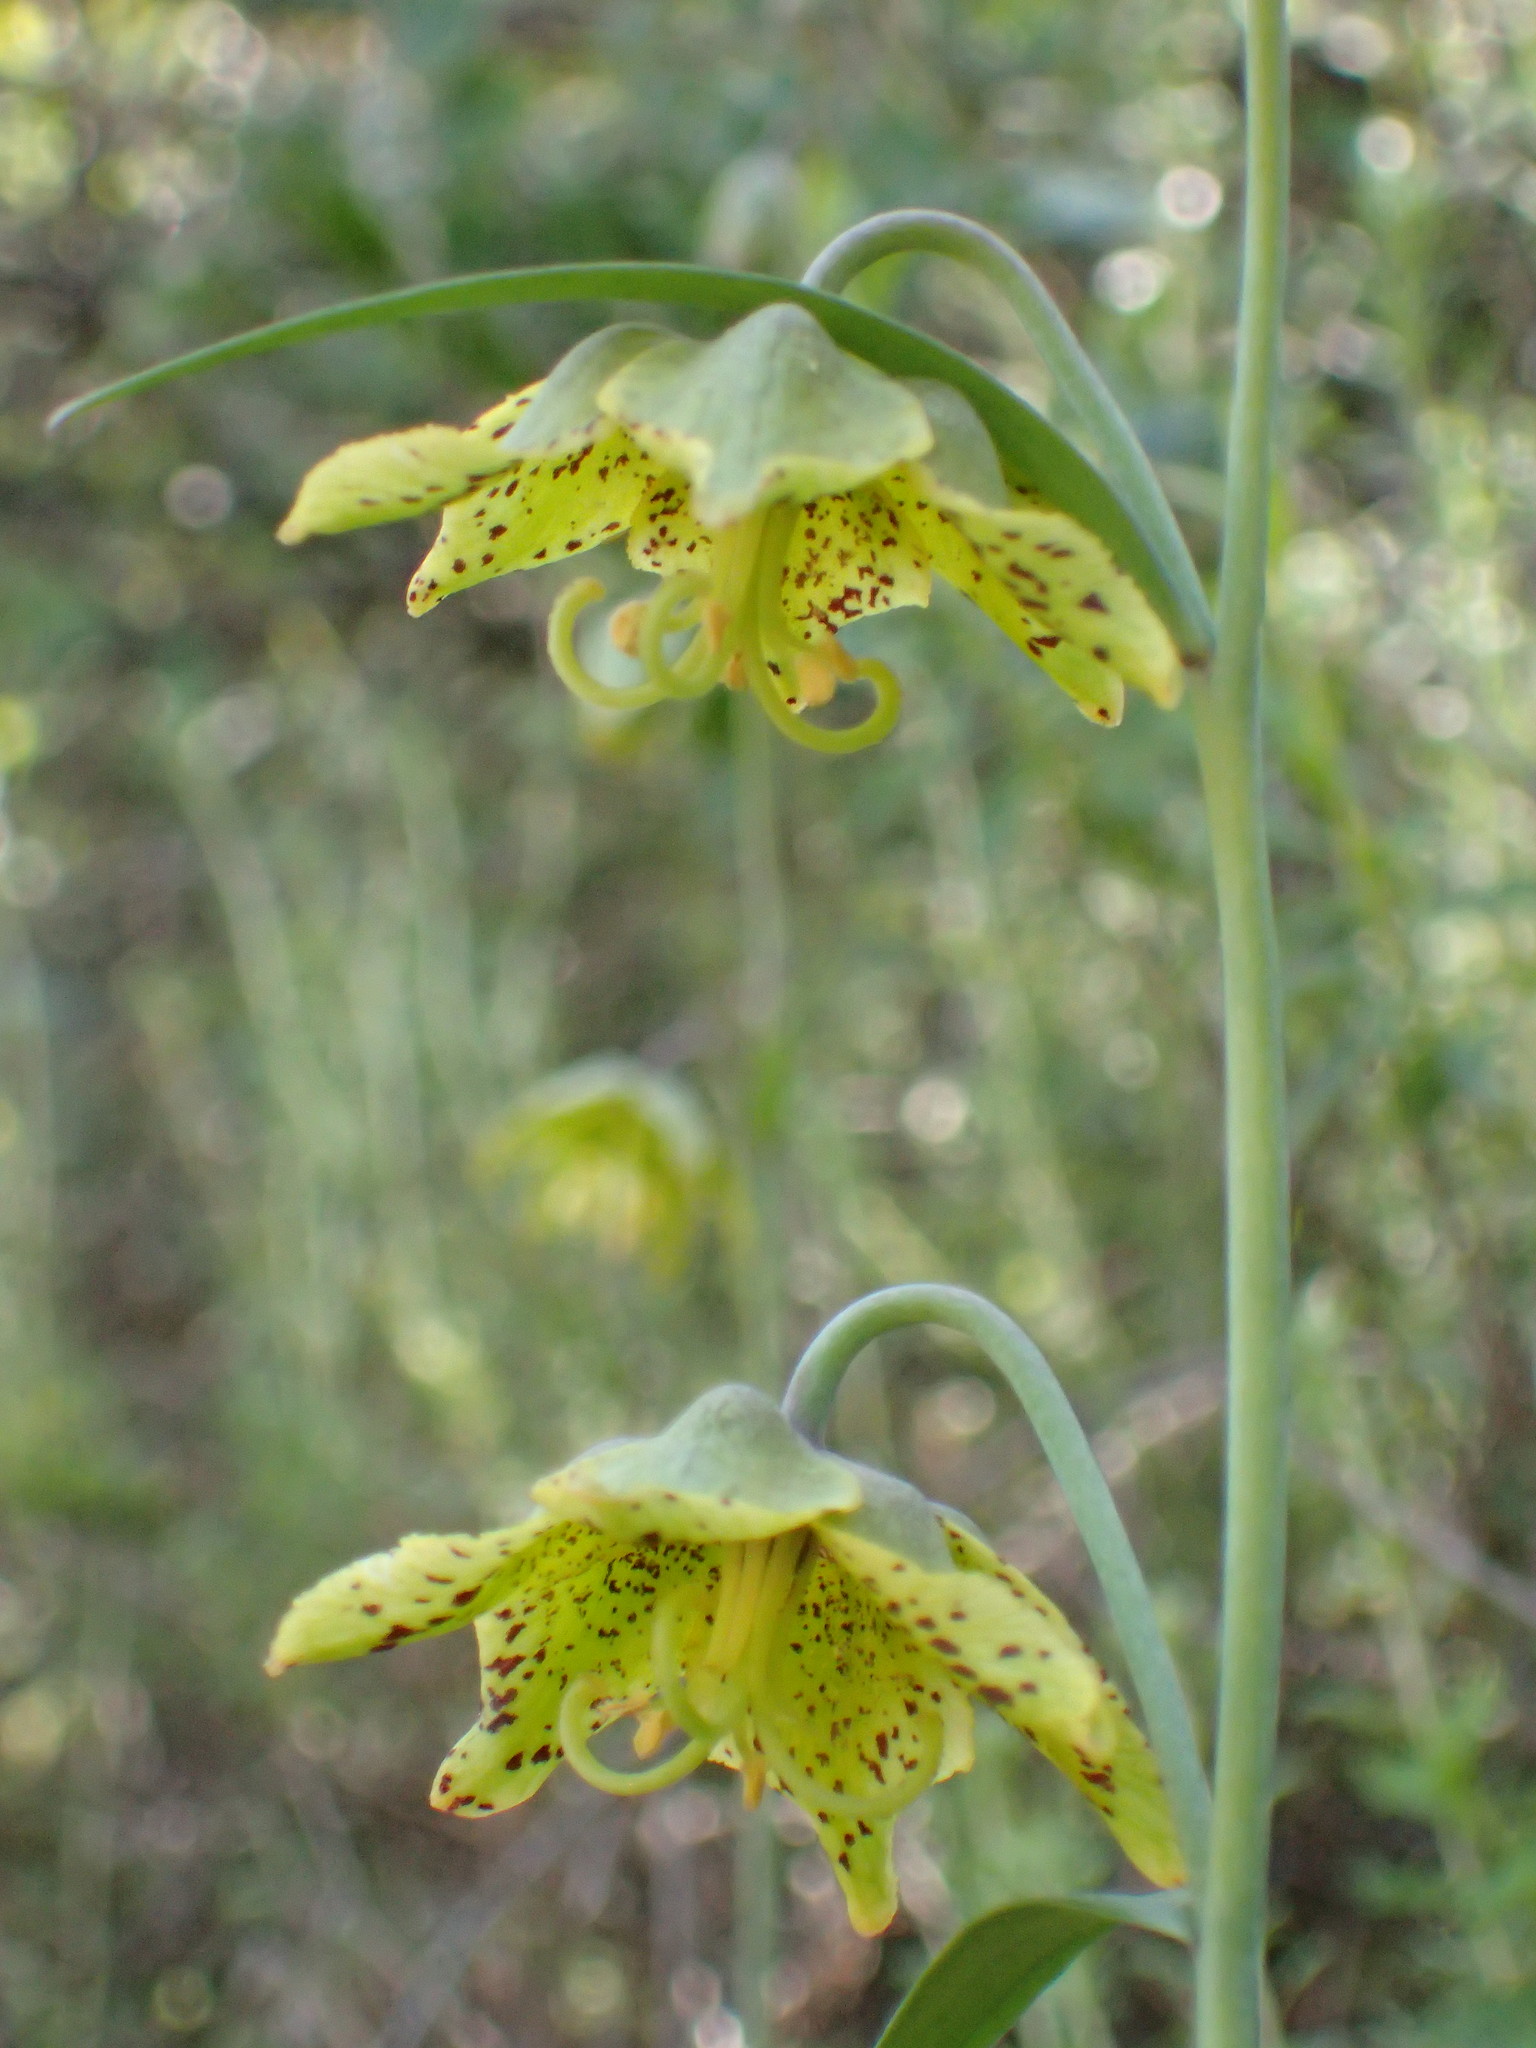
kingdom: Plantae
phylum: Tracheophyta
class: Liliopsida
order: Liliales
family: Liliaceae
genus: Fritillaria
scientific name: Fritillaria ojaiensis
